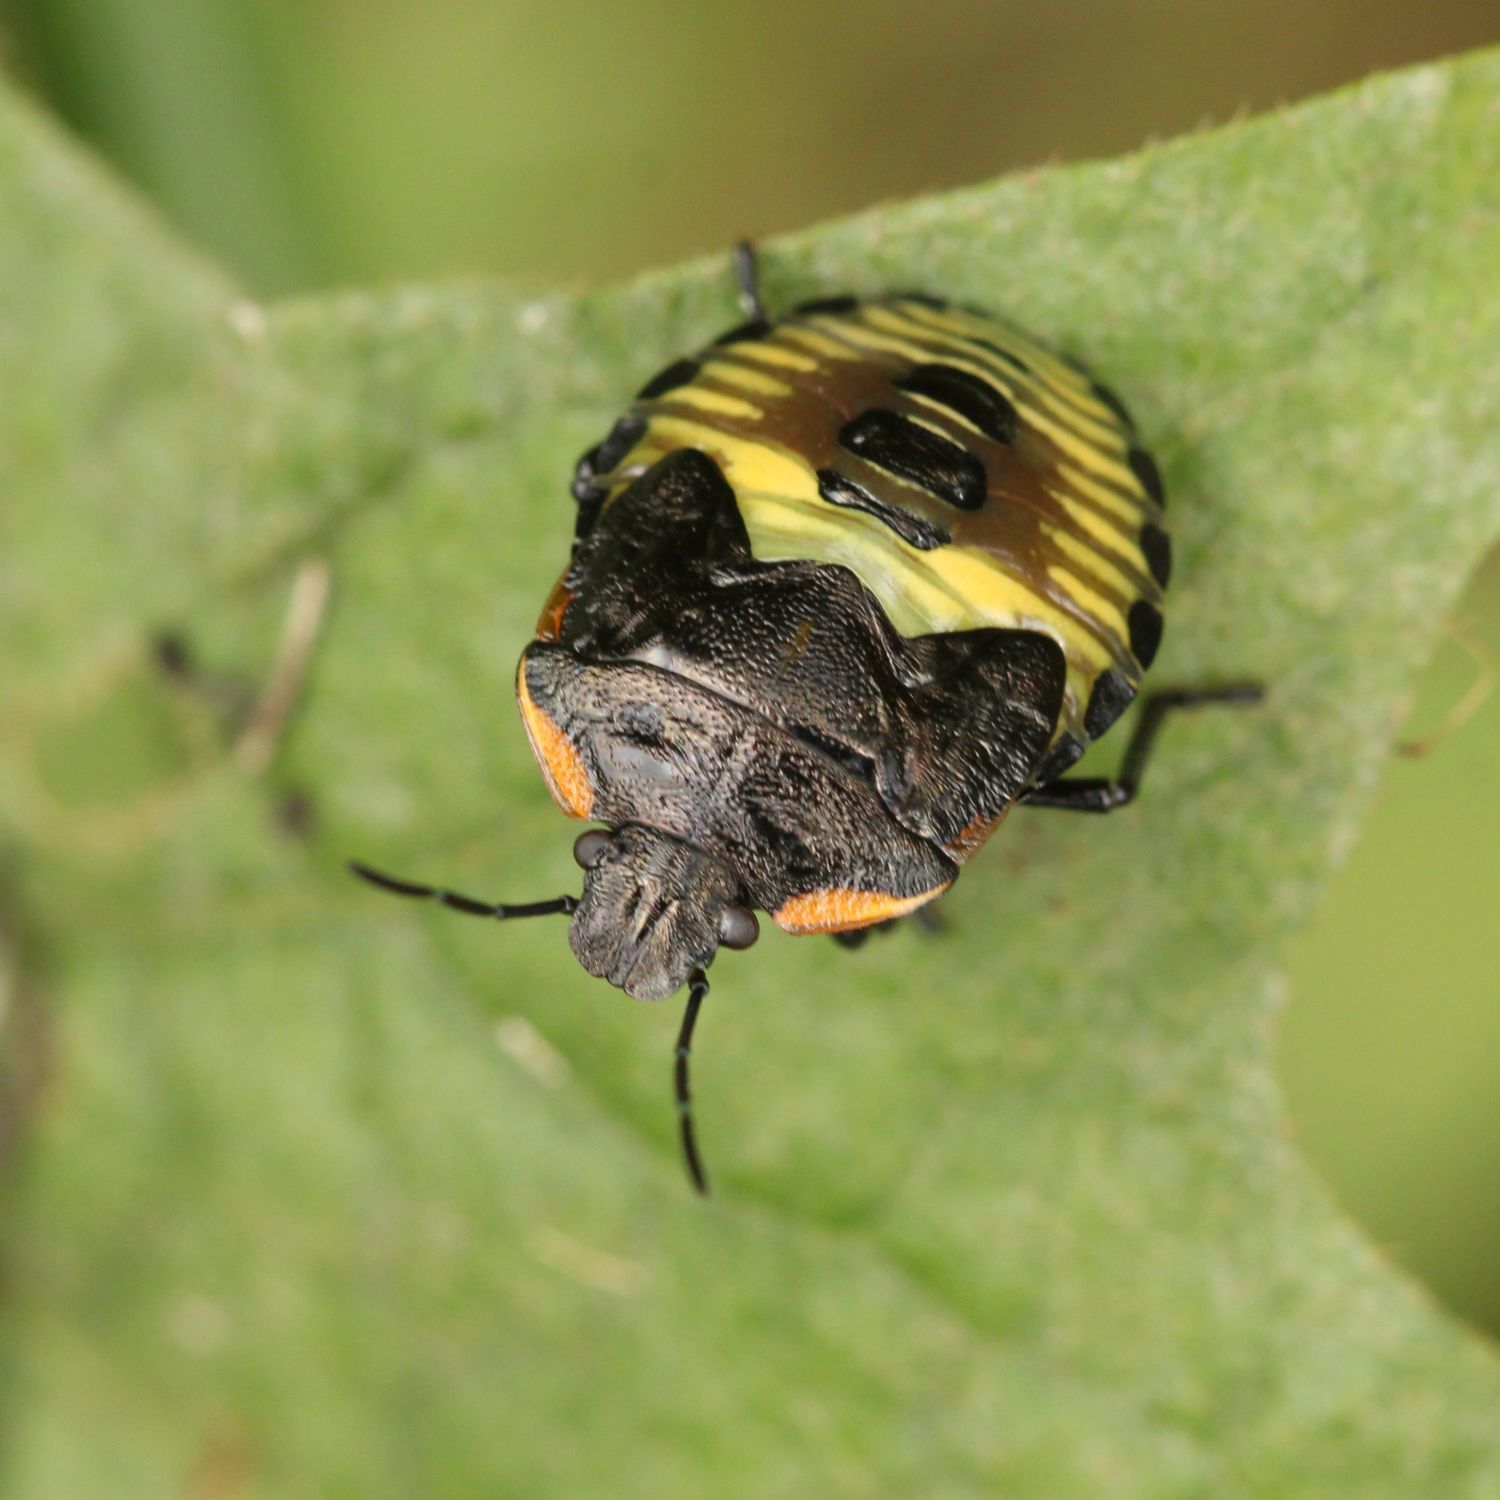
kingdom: Animalia
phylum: Arthropoda
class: Insecta
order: Hemiptera
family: Pentatomidae
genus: Chinavia
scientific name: Chinavia hilaris
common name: Green stink bug
